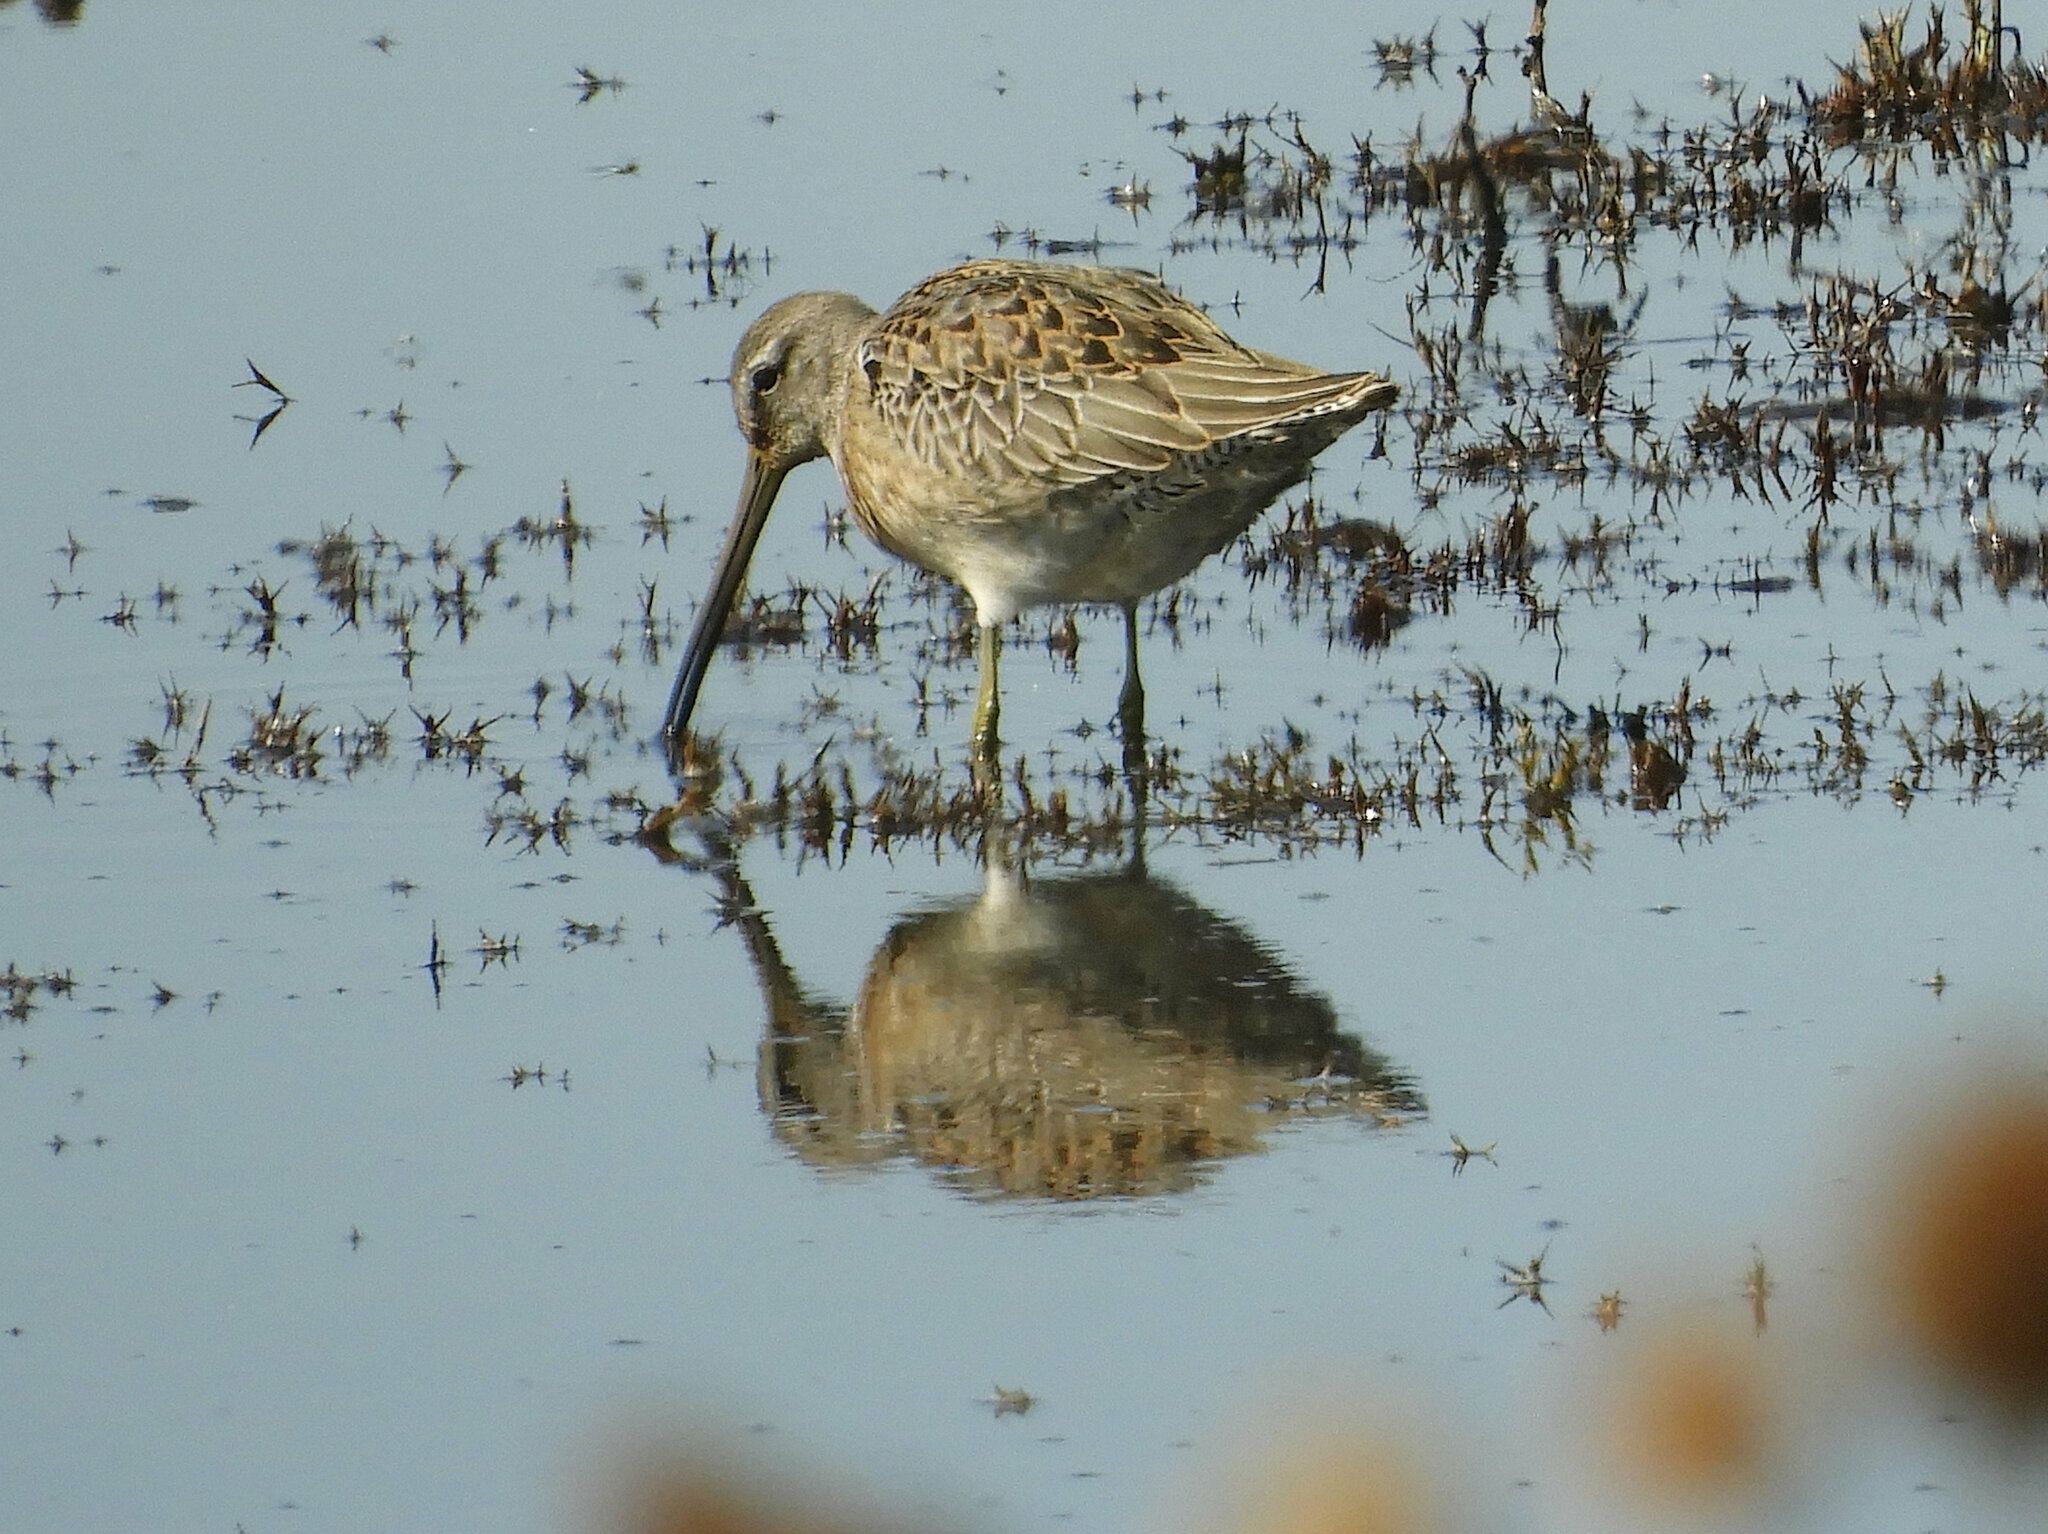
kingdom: Animalia
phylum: Chordata
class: Aves
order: Charadriiformes
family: Scolopacidae
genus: Limnodromus
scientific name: Limnodromus scolopaceus
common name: Long-billed dowitcher
